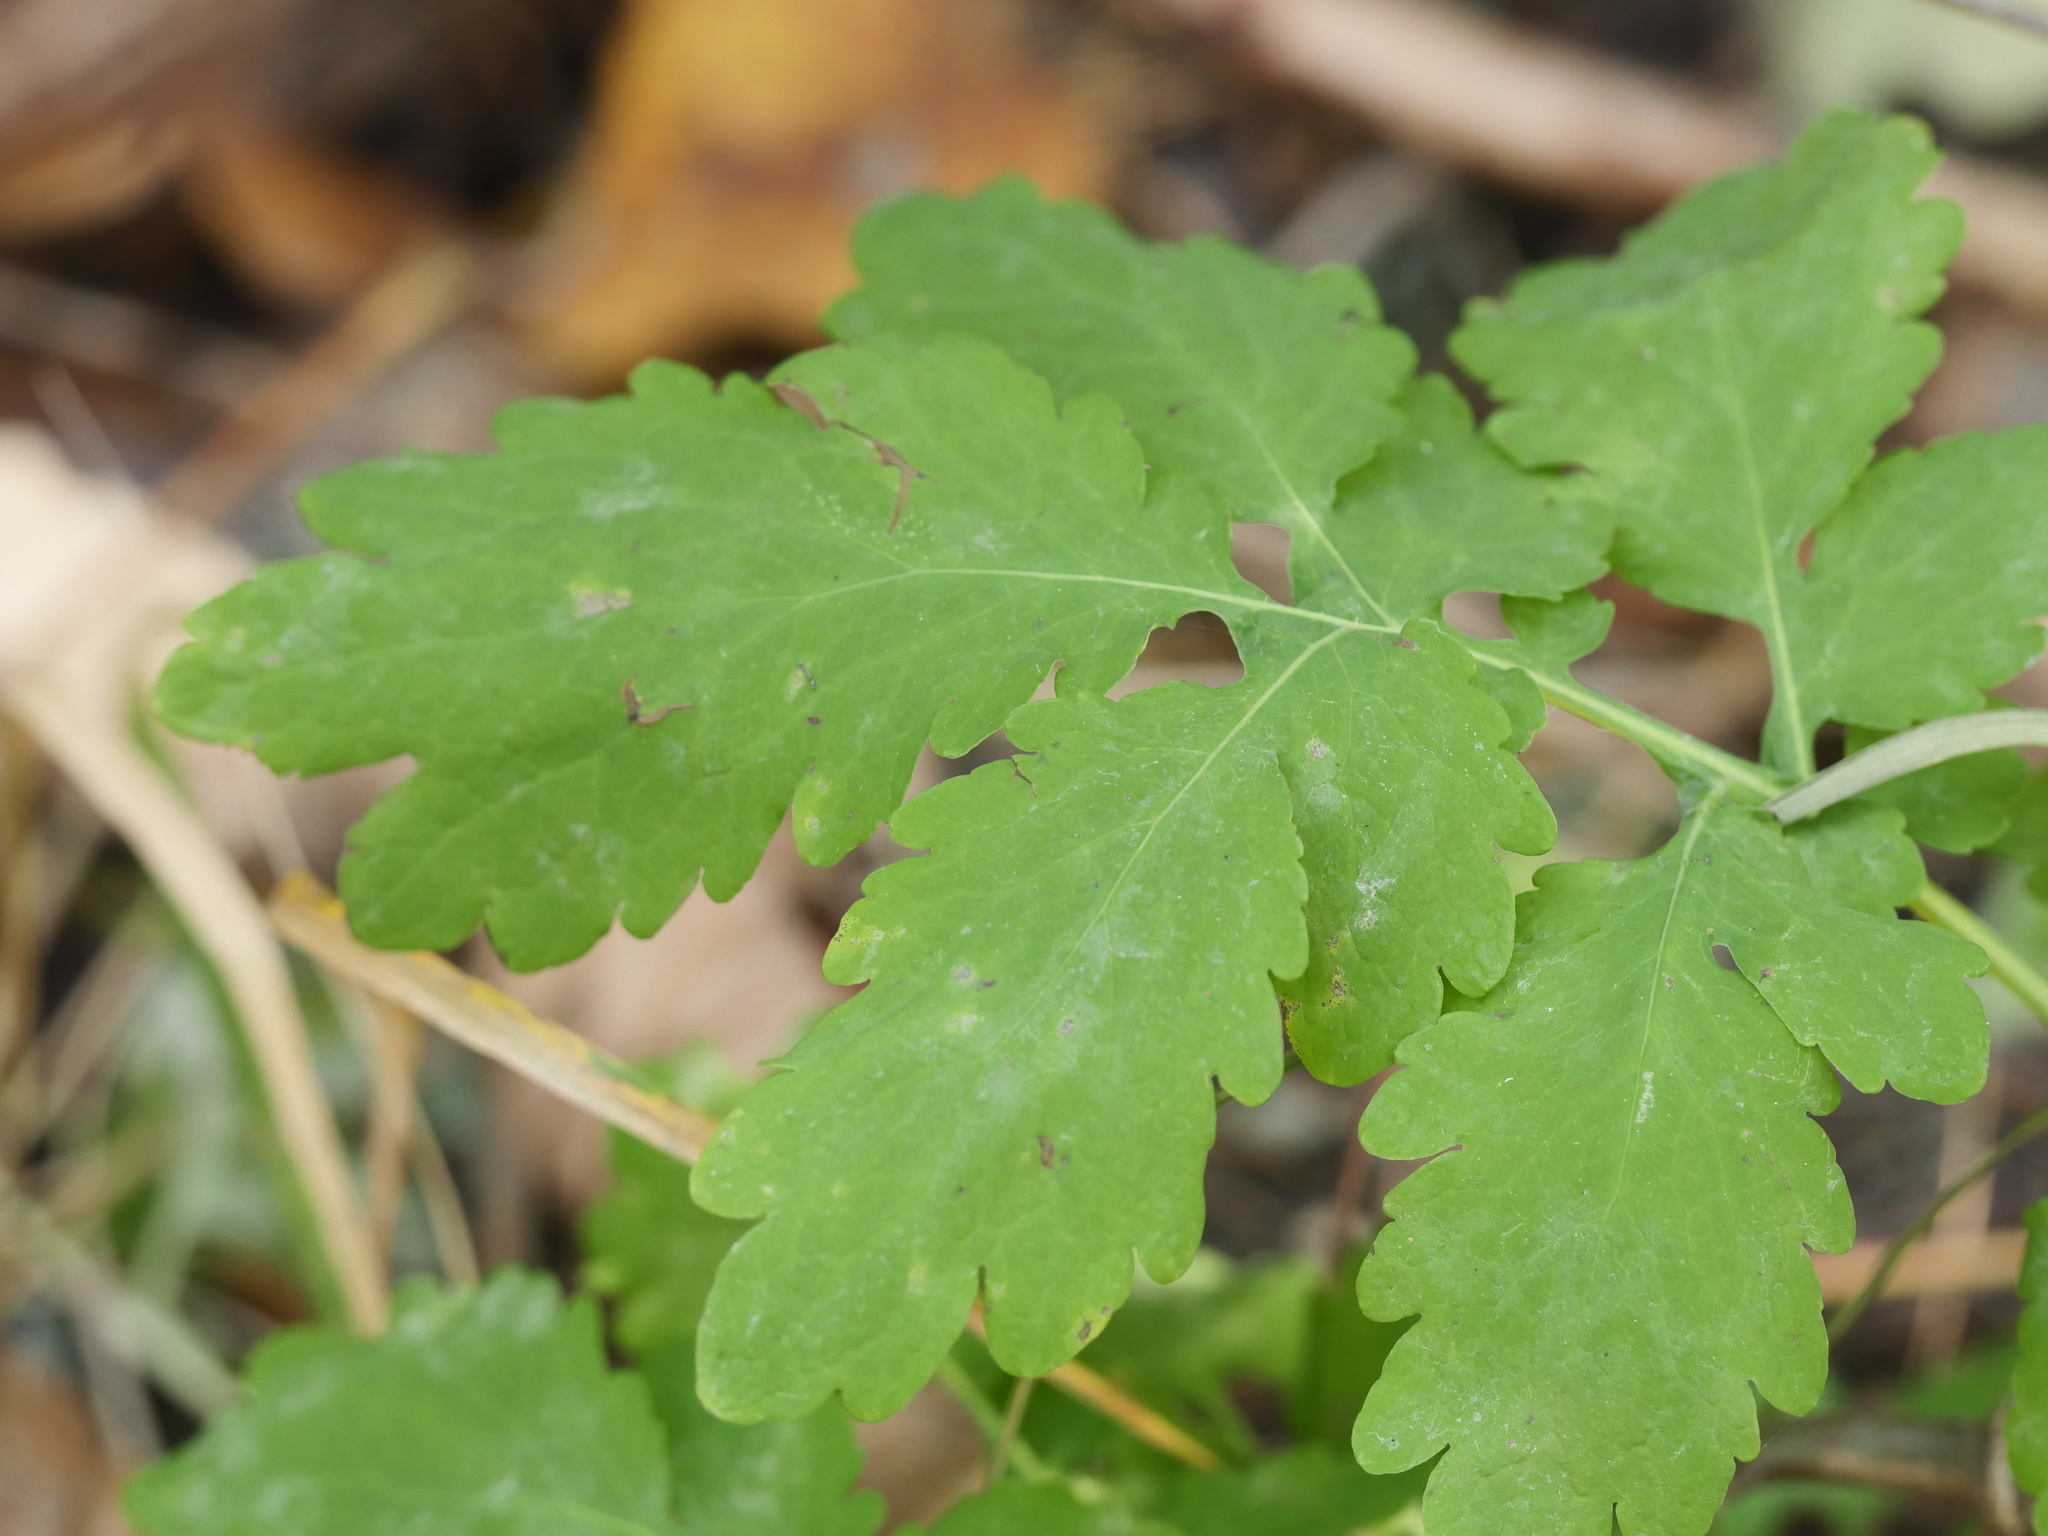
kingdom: Plantae
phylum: Tracheophyta
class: Magnoliopsida
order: Ranunculales
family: Papaveraceae
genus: Chelidonium
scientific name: Chelidonium majus
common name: Greater celandine
